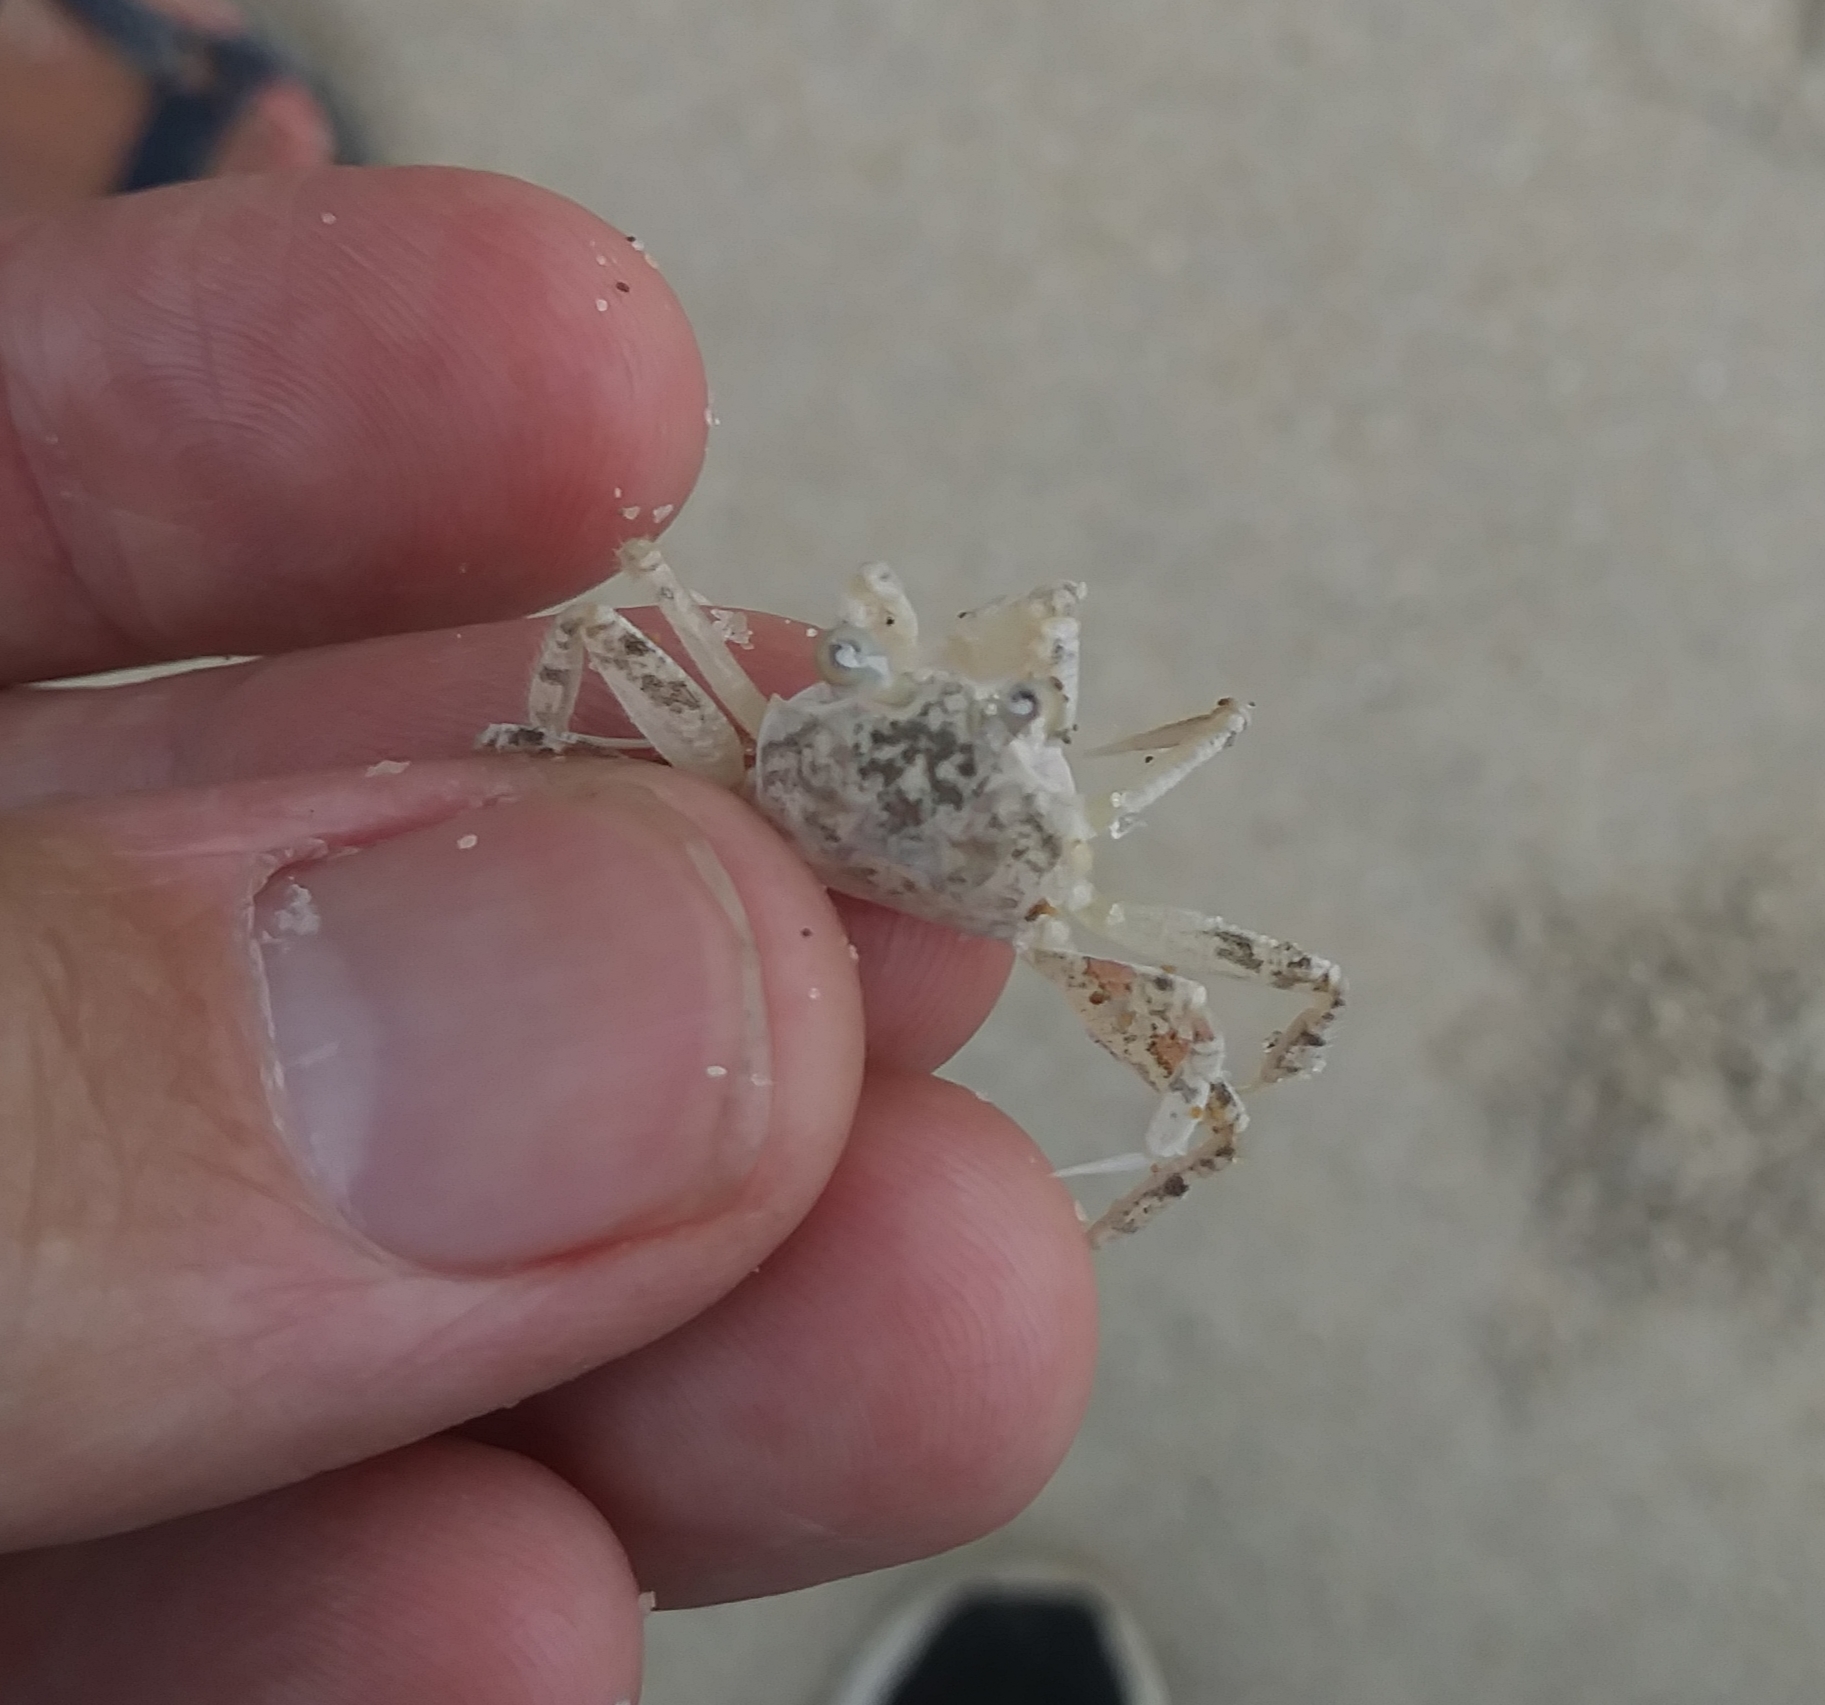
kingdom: Animalia
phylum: Arthropoda
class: Malacostraca
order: Decapoda
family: Ocypodidae
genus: Ocypode
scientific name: Ocypode quadrata
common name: Ghost crab
